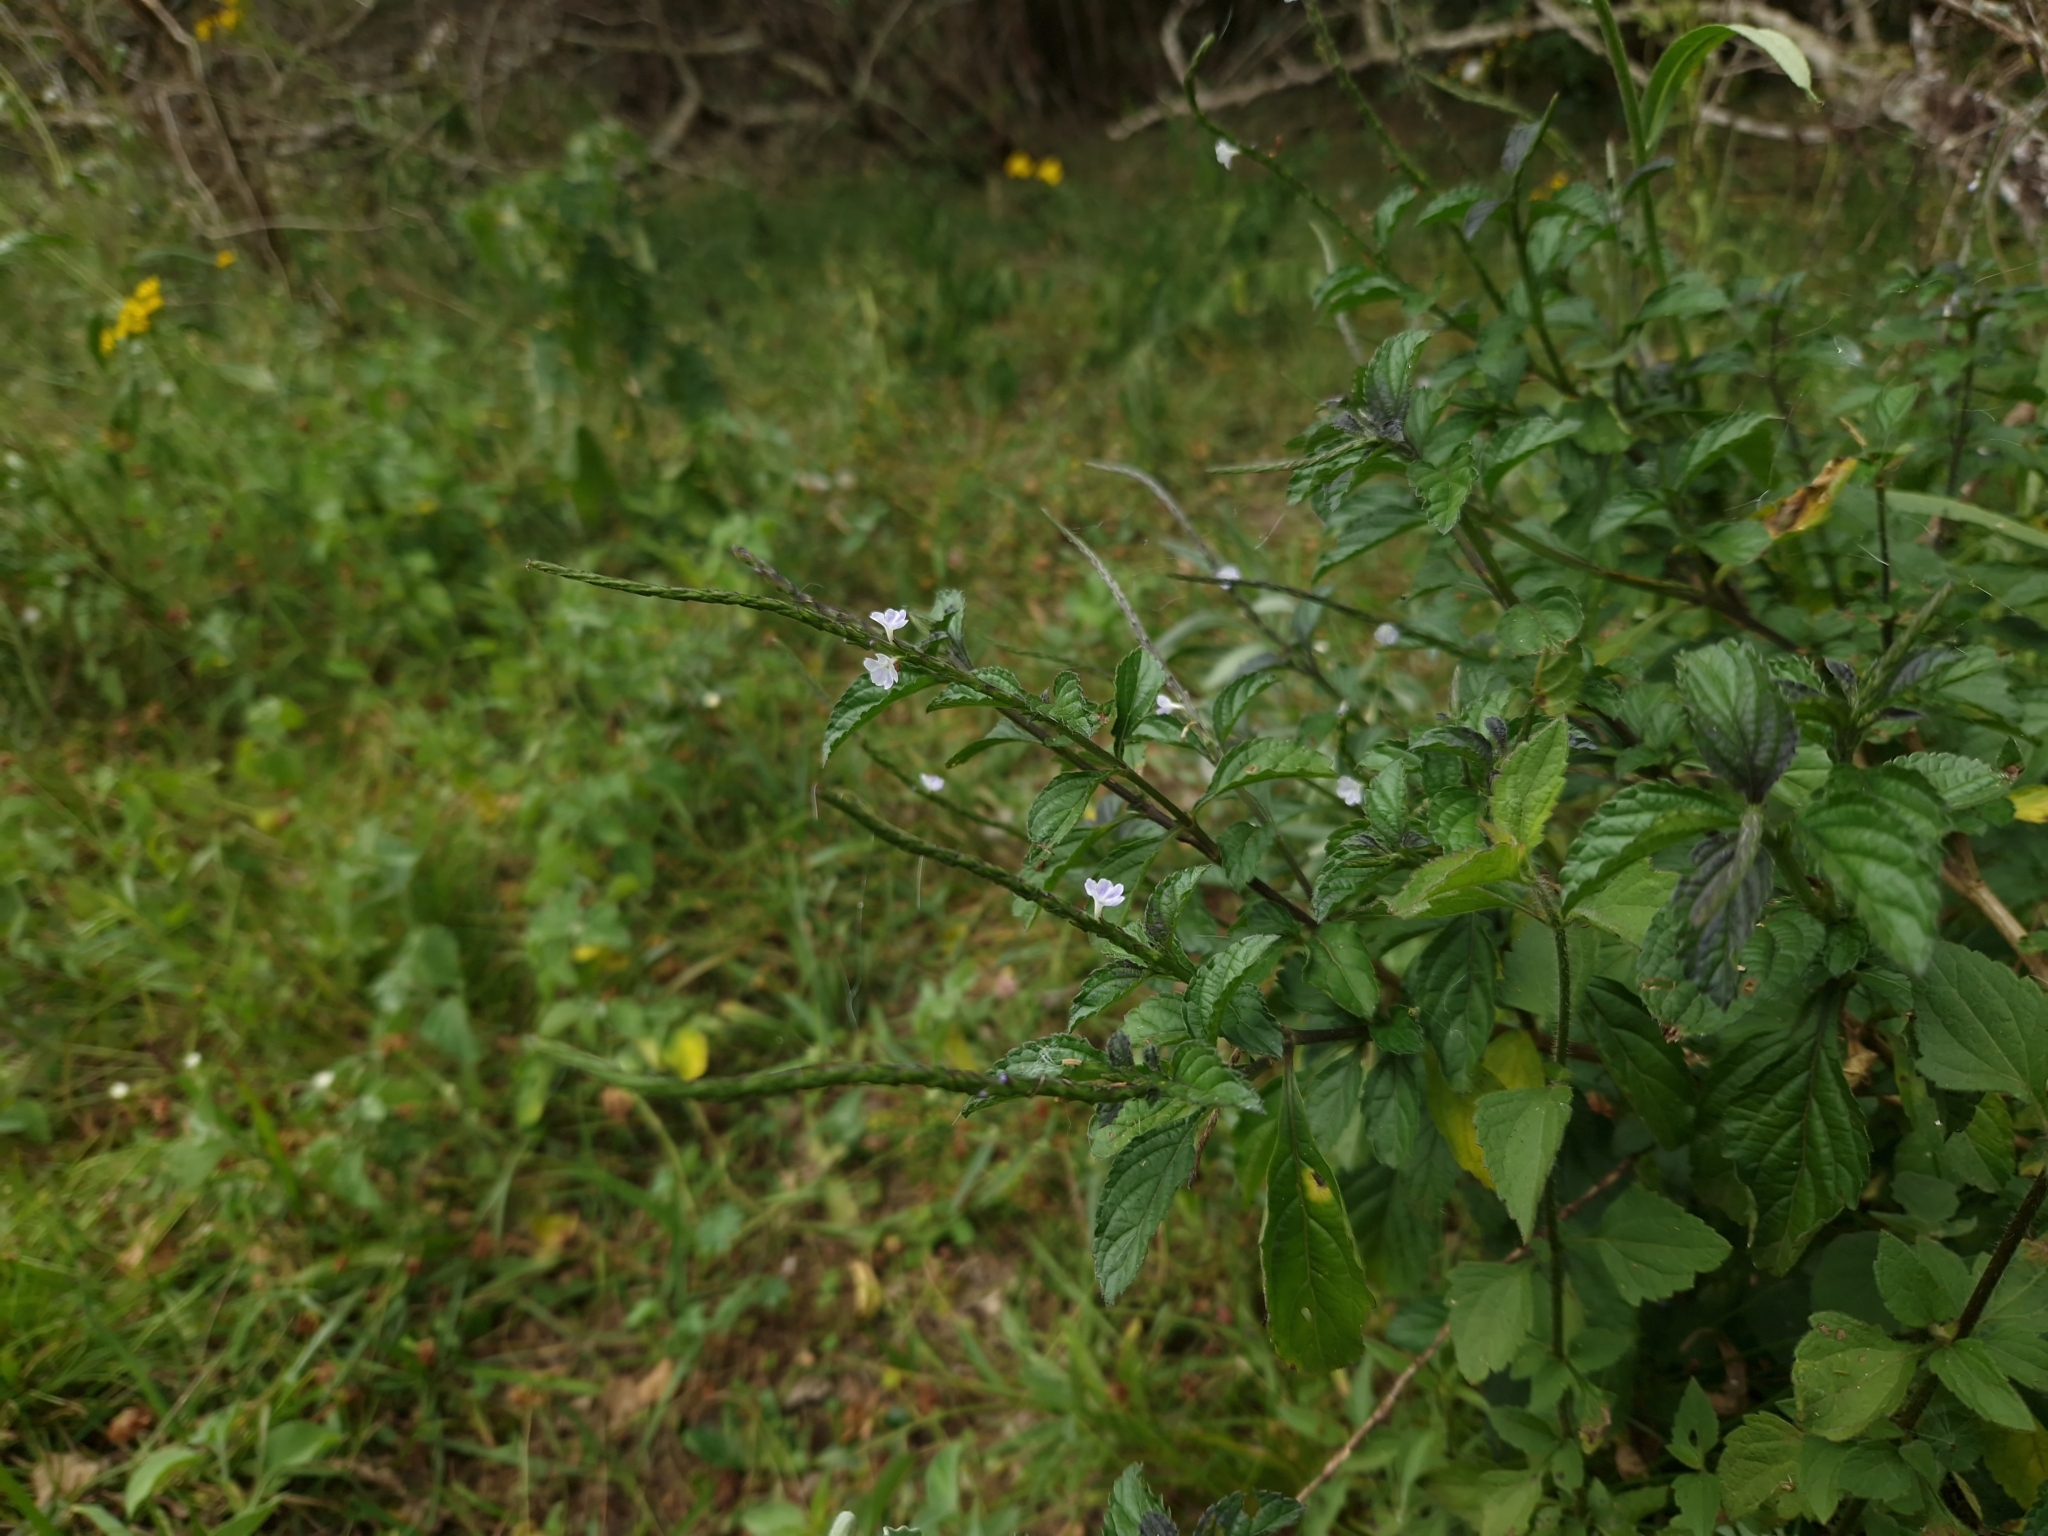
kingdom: Plantae
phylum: Tracheophyta
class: Magnoliopsida
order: Lamiales
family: Verbenaceae
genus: Stachytarpheta
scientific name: Stachytarpheta cayennensis
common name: Cayenne porterweed
